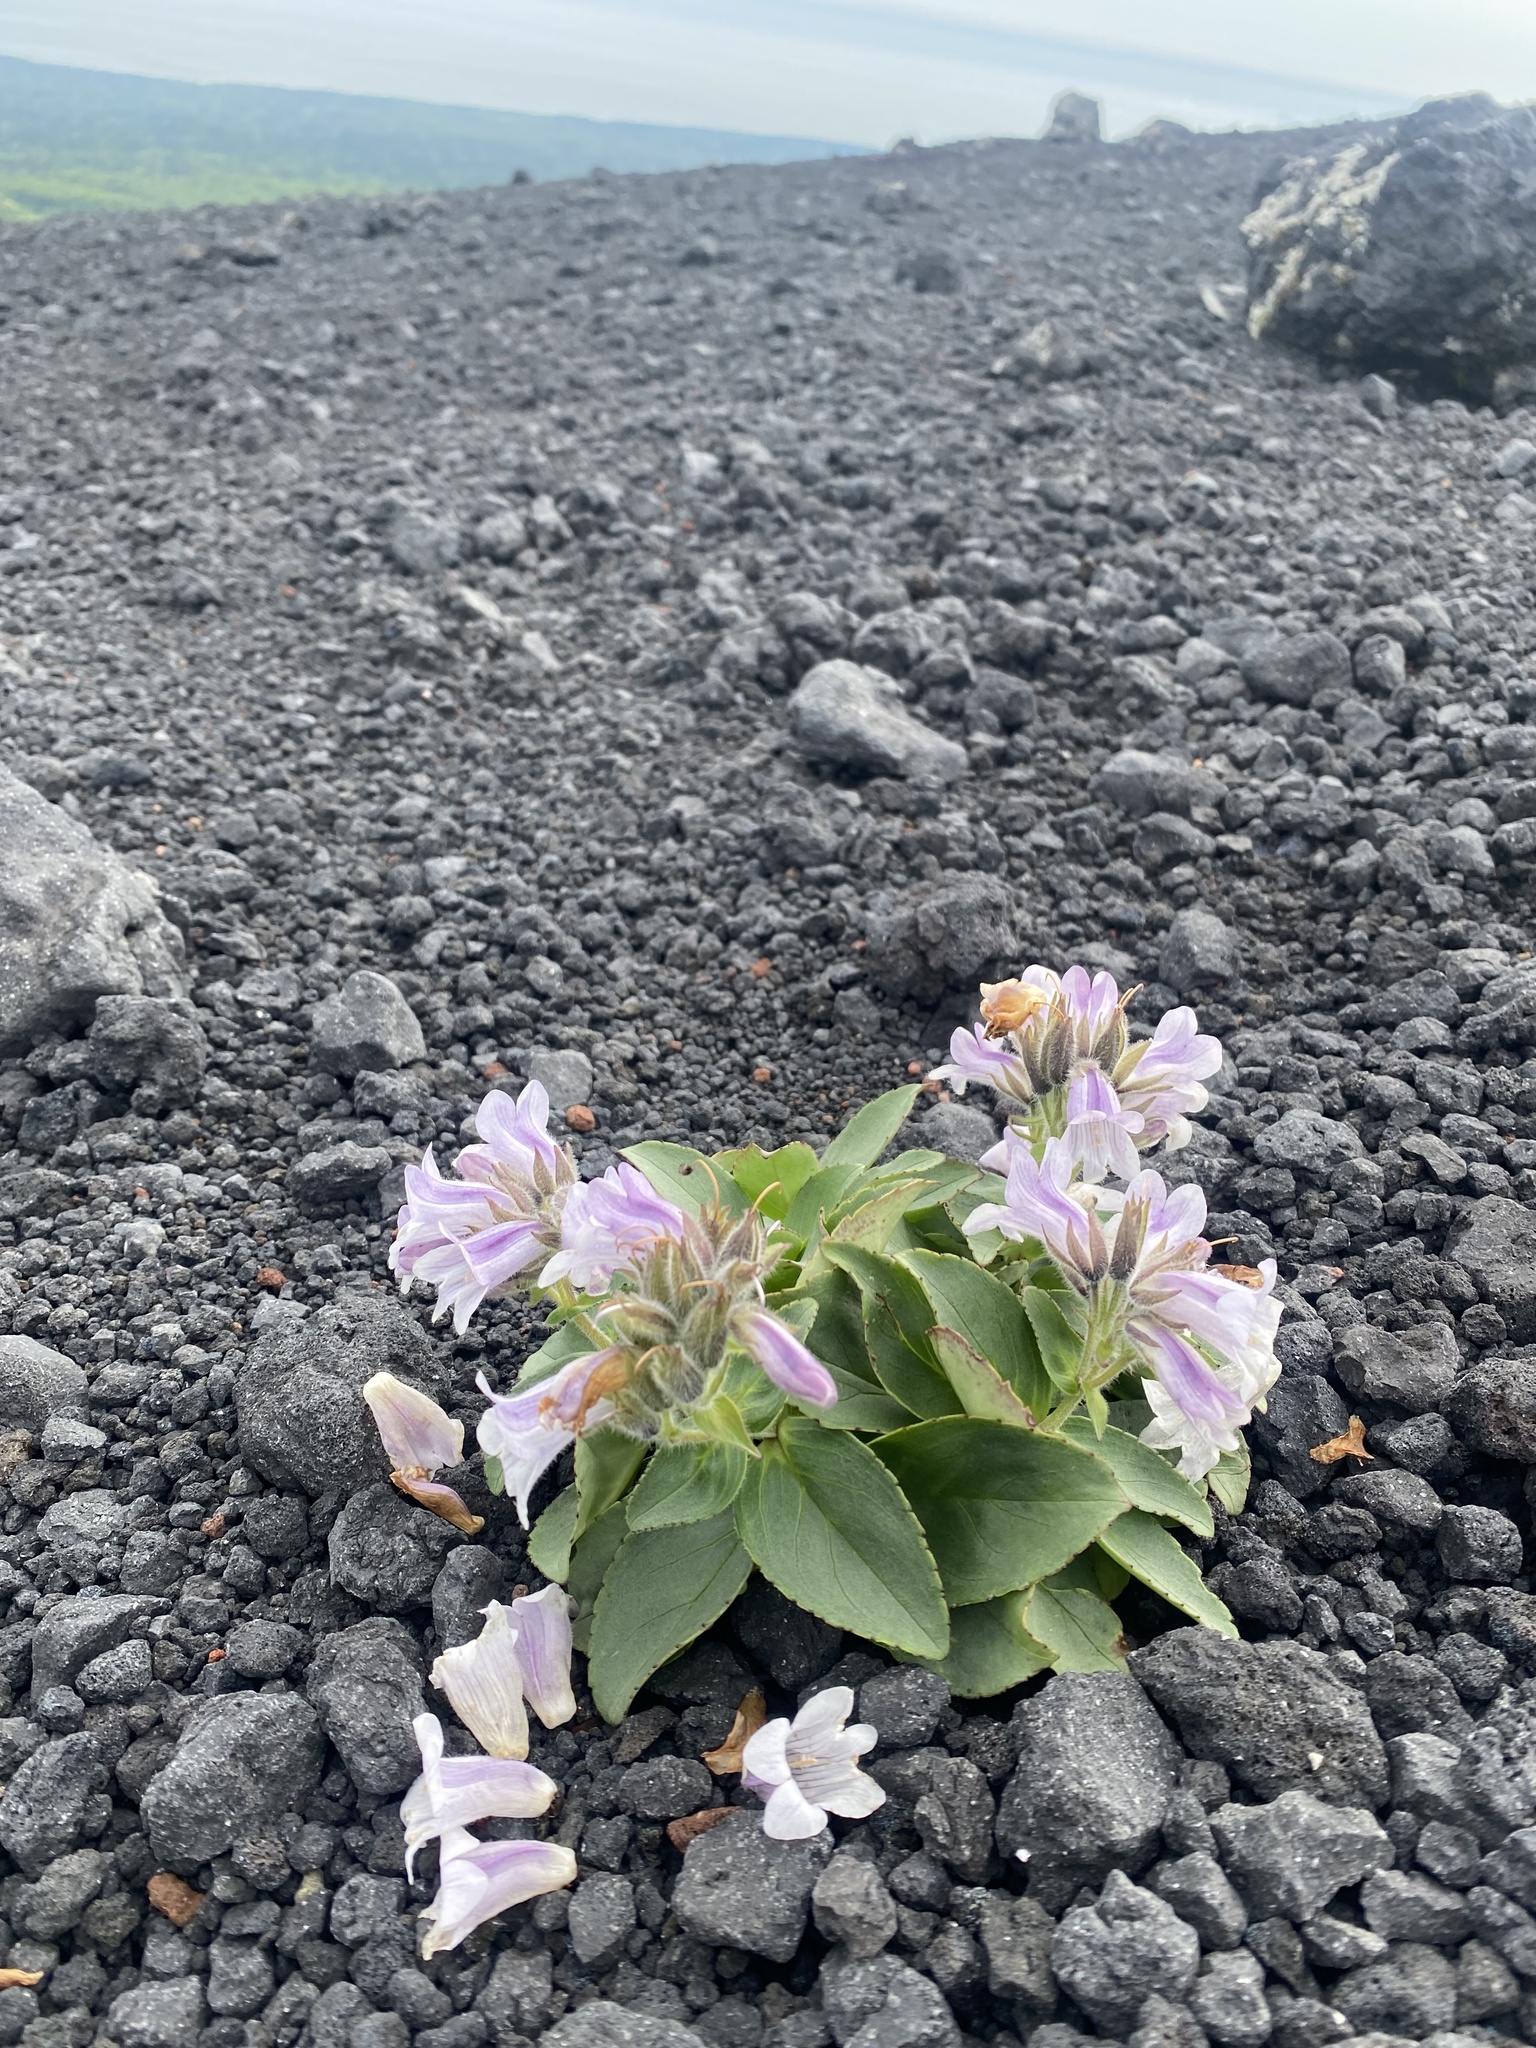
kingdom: Plantae
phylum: Tracheophyta
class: Magnoliopsida
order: Lamiales
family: Plantaginaceae
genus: Pennellianthus
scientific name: Pennellianthus frutescens
